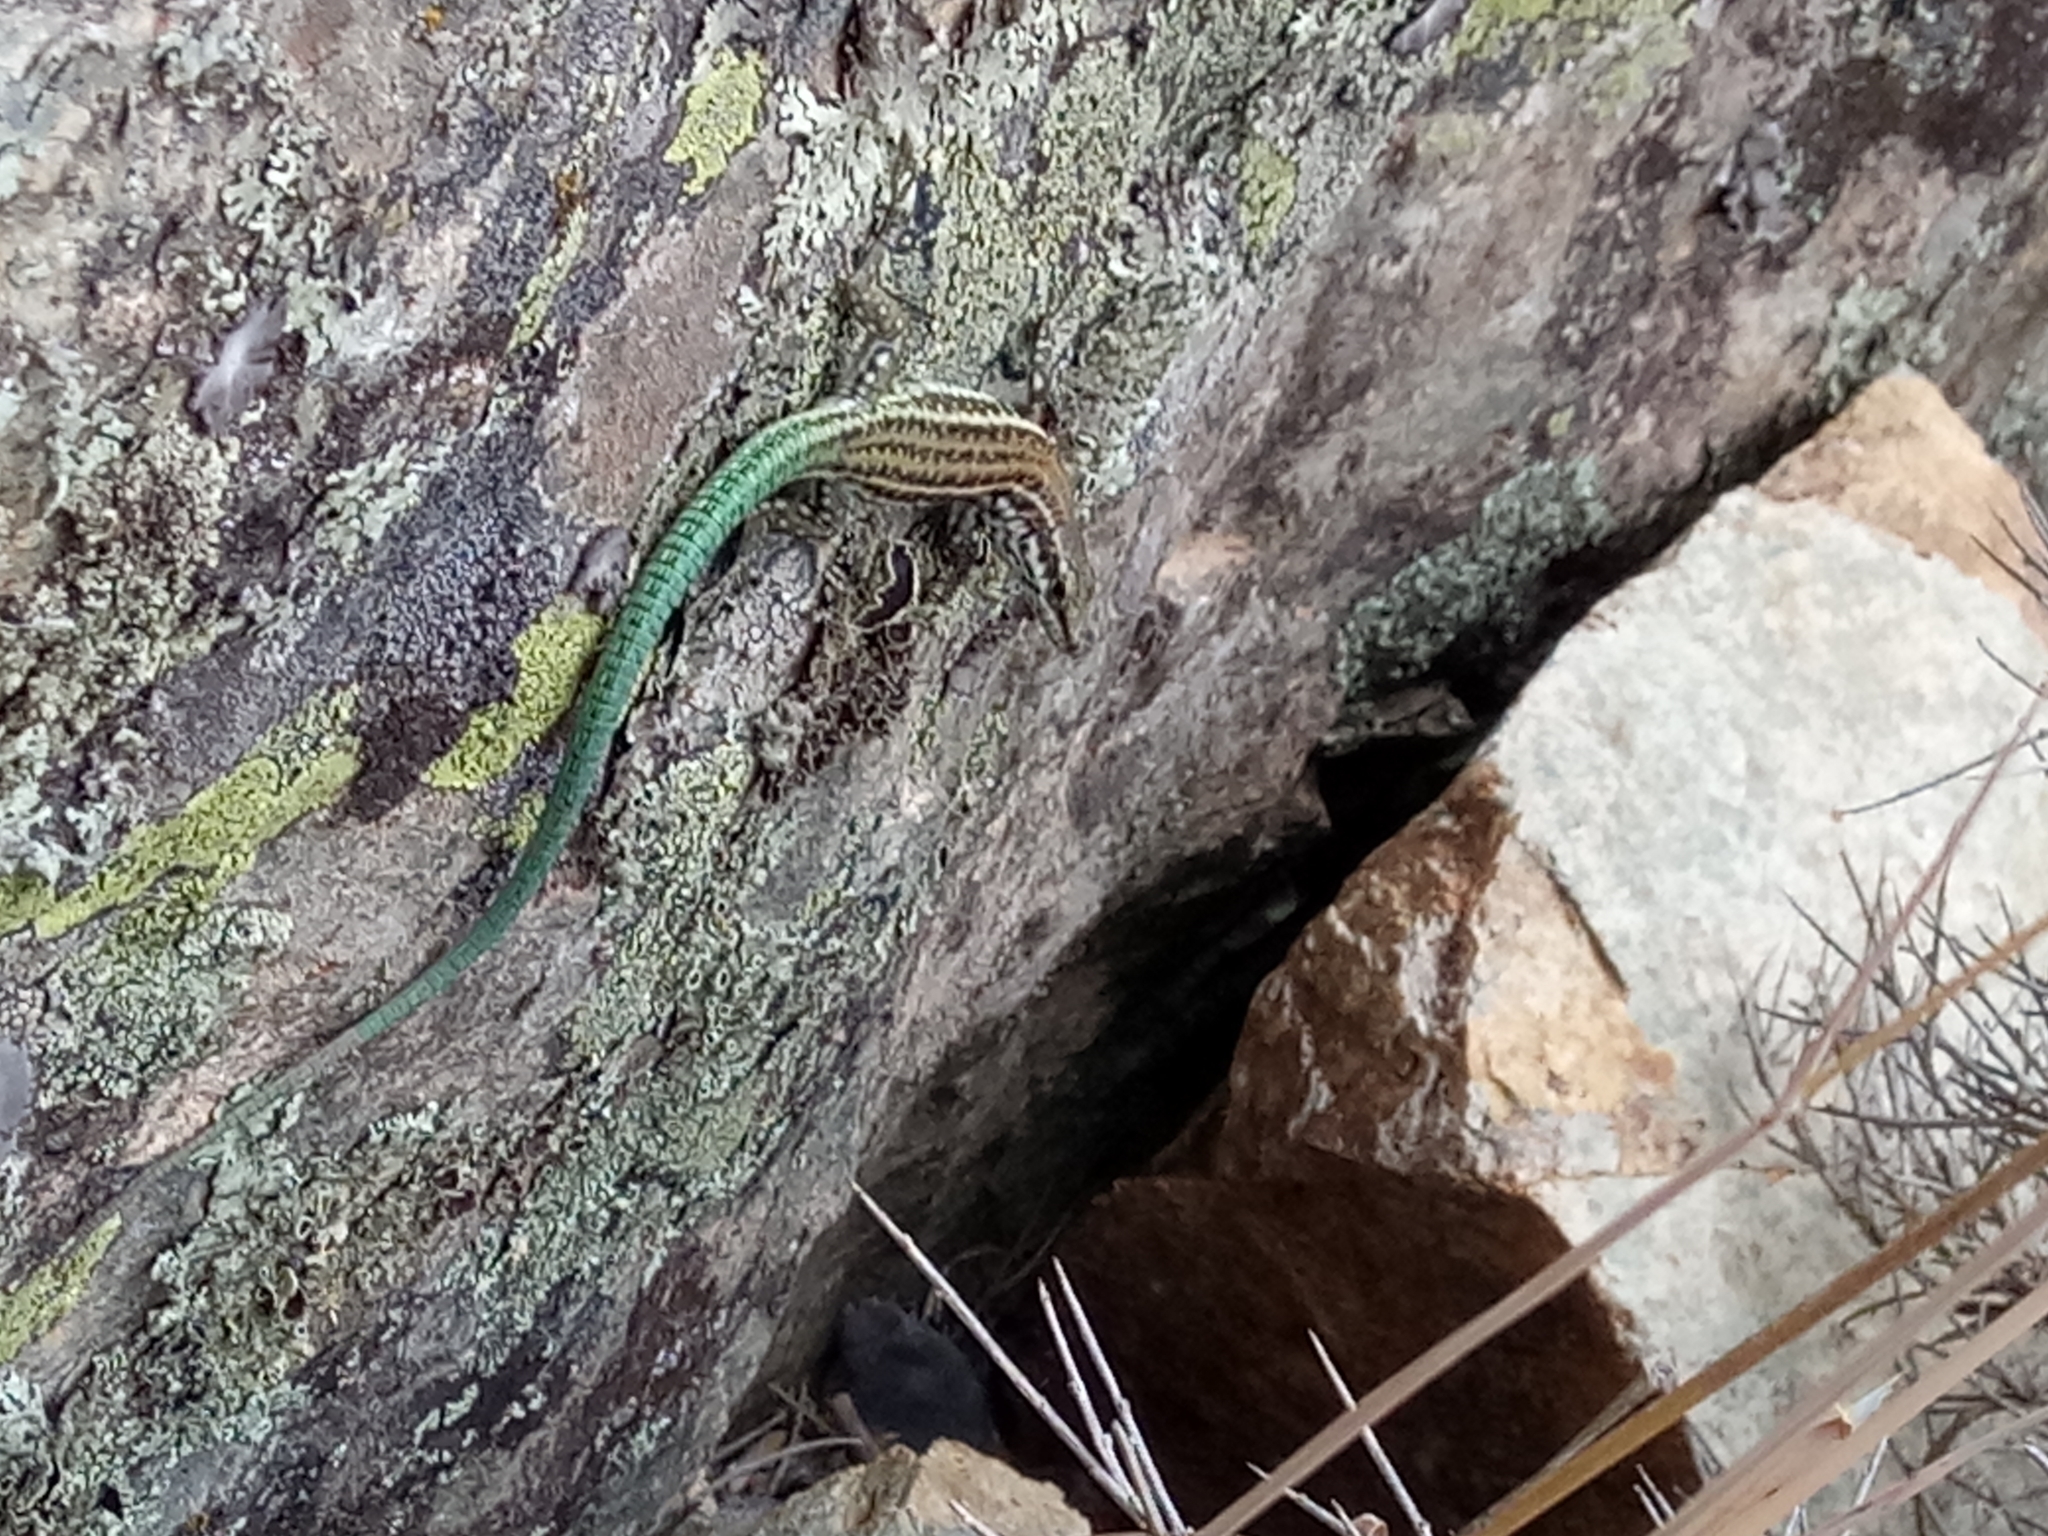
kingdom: Animalia
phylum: Chordata
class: Squamata
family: Lacertidae
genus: Podarcis
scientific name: Podarcis tiliguerta
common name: Tyrrhenian wall lizard
